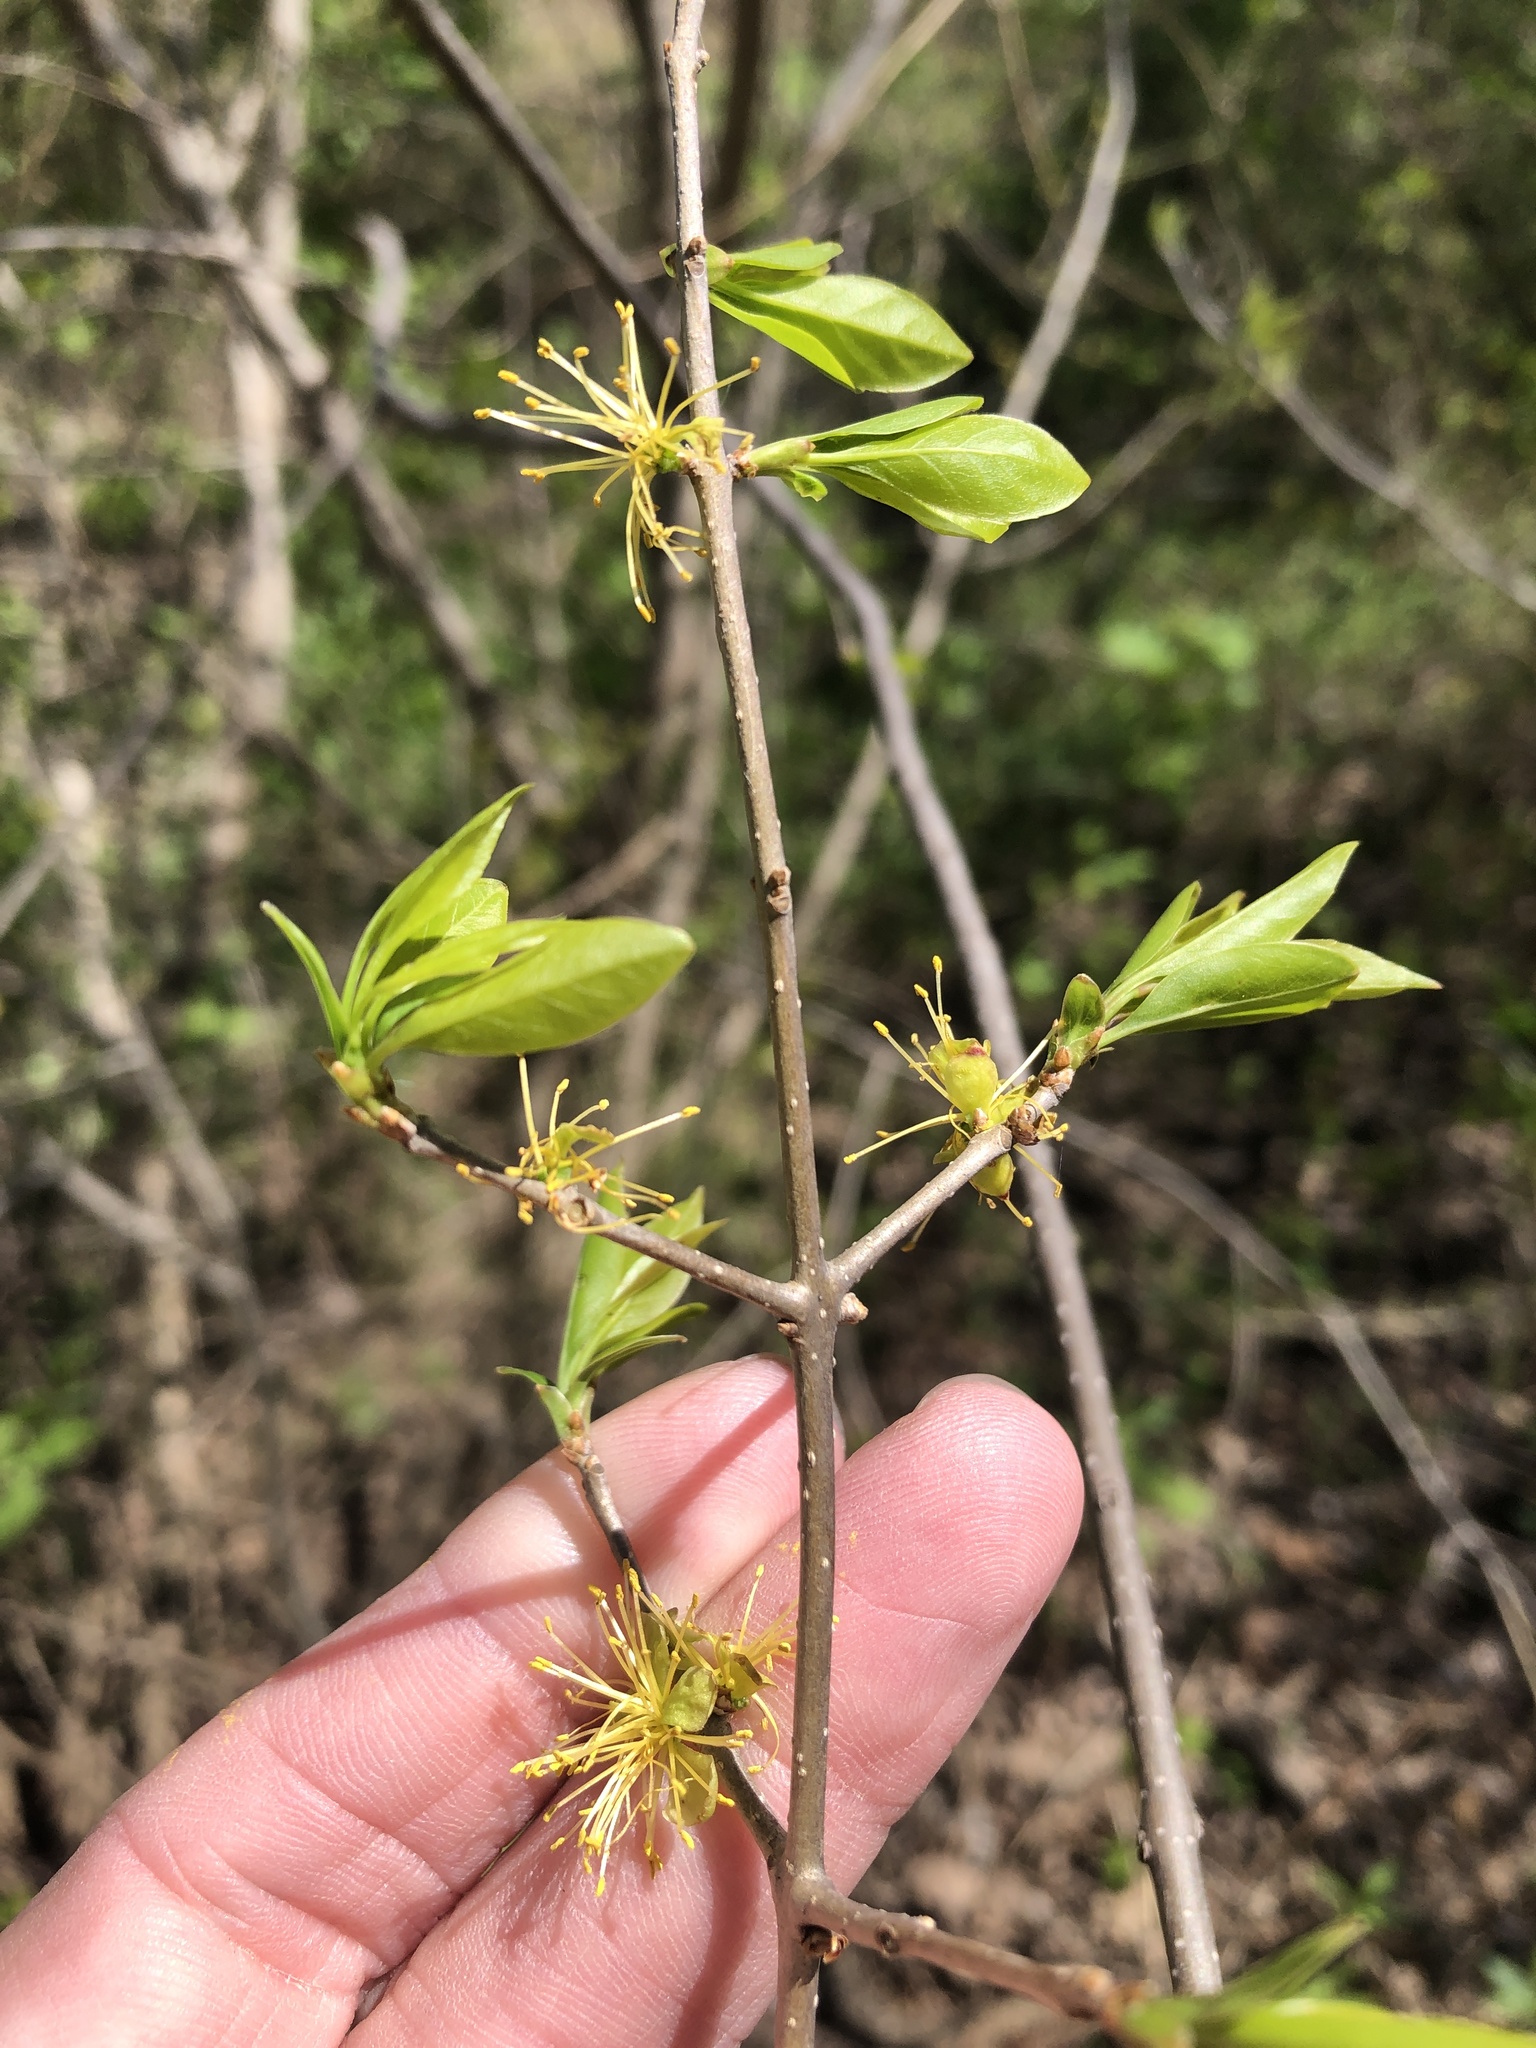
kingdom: Plantae
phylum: Tracheophyta
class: Magnoliopsida
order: Lamiales
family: Oleaceae
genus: Forestiera
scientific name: Forestiera acuminata
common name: Swamp-privet
